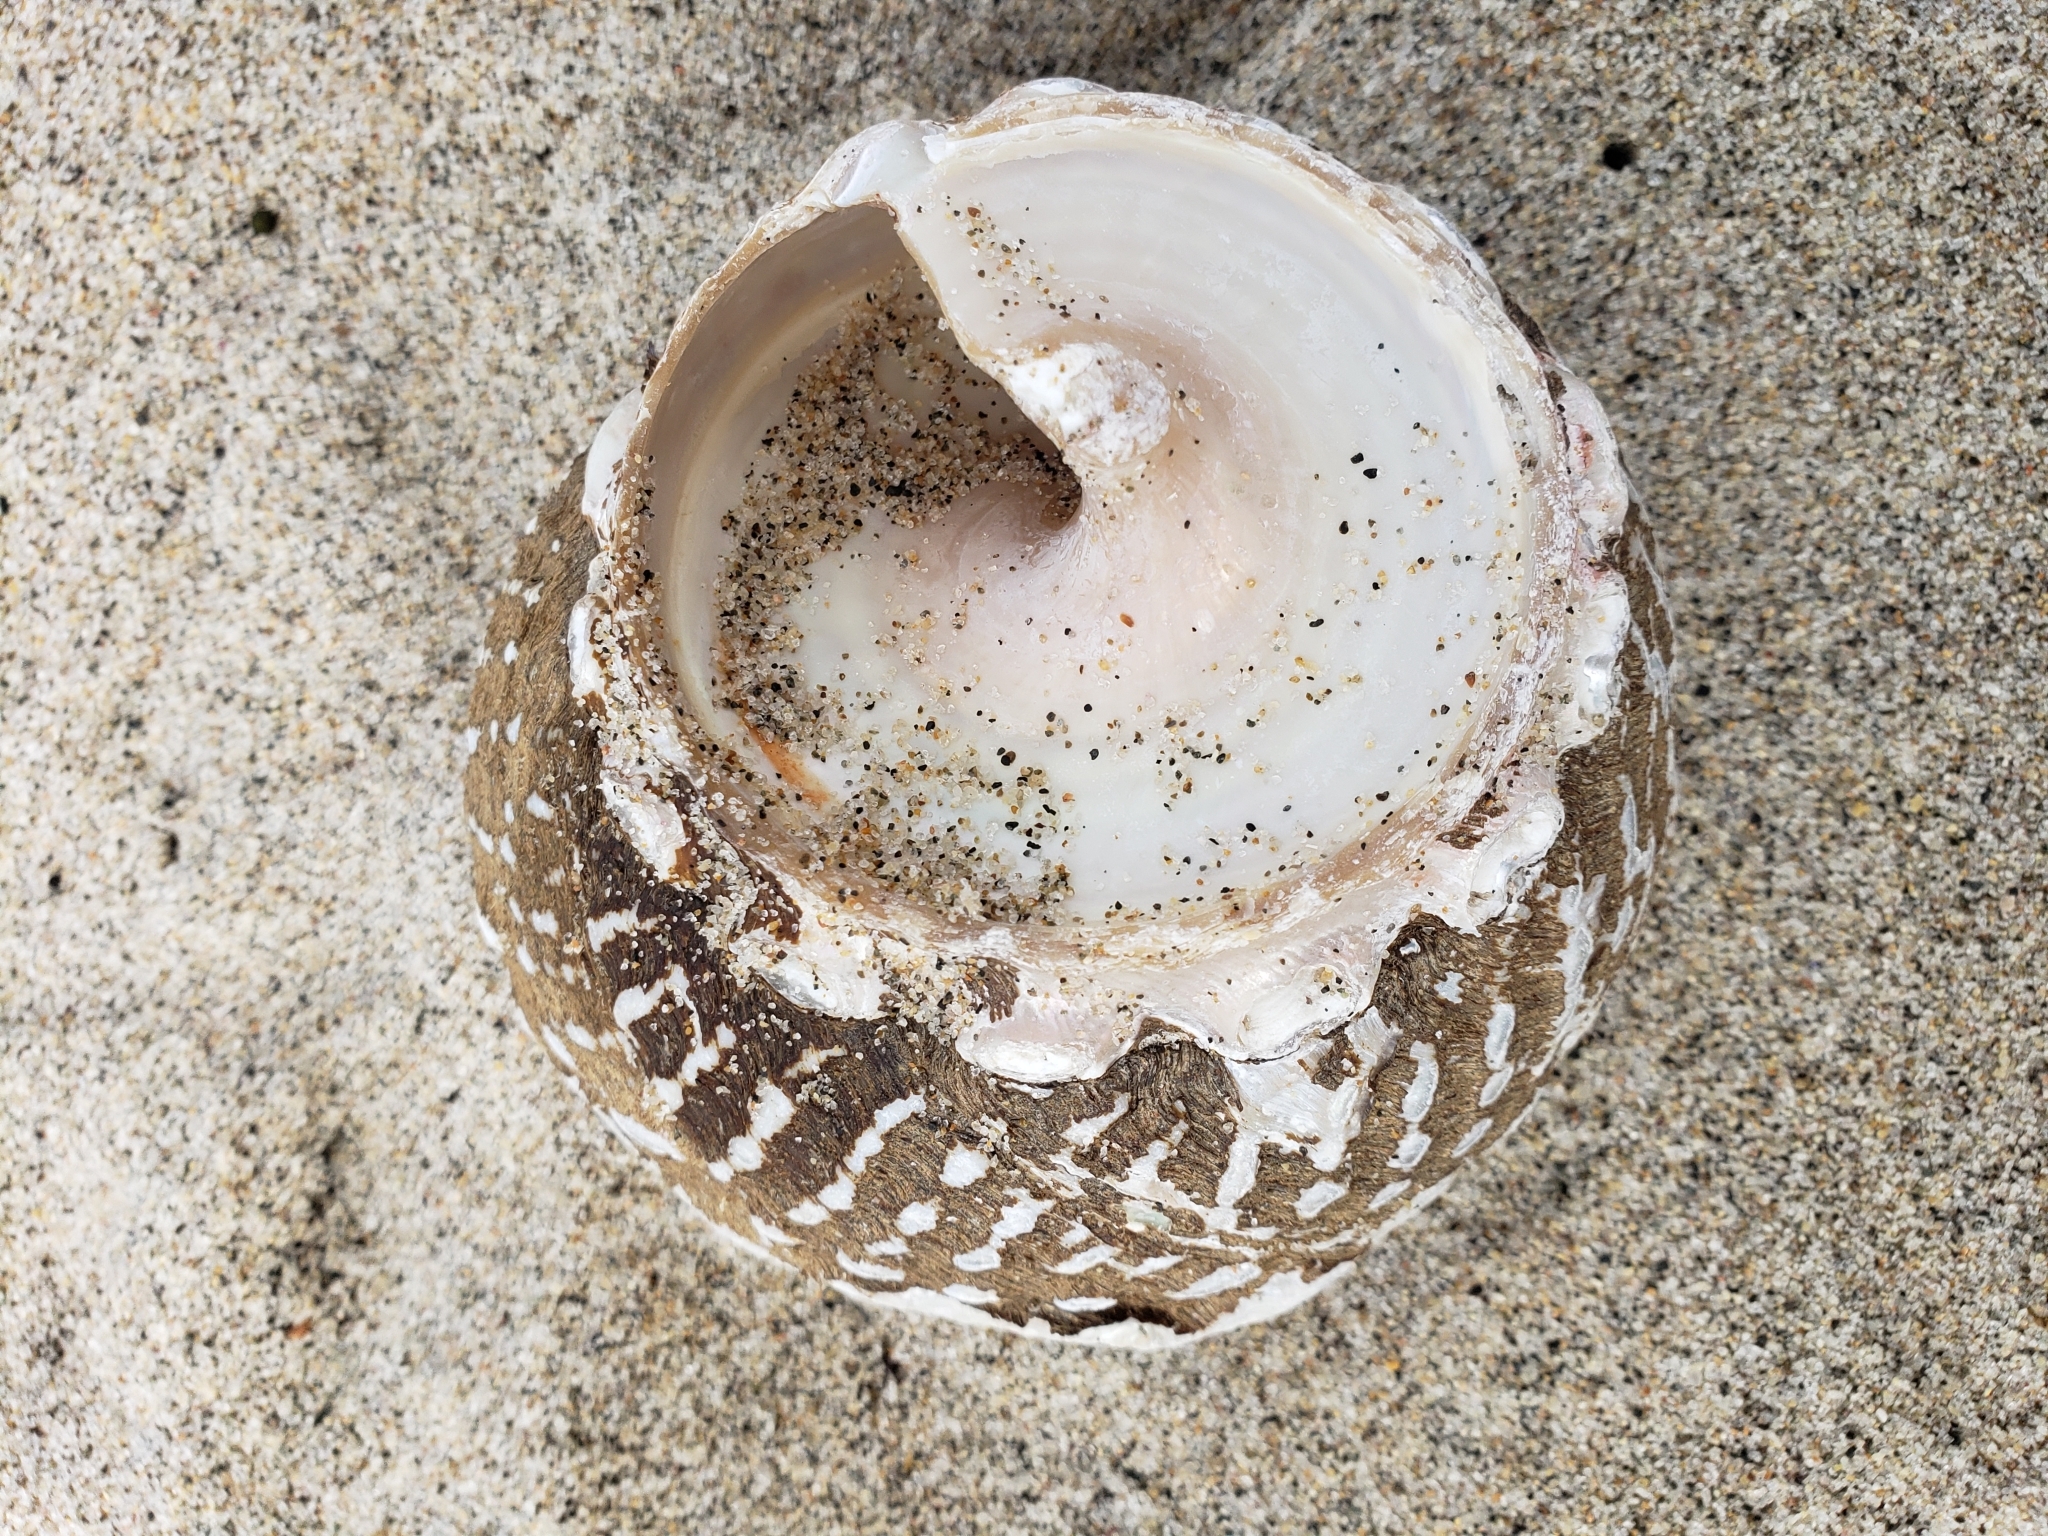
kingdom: Animalia
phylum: Mollusca
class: Gastropoda
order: Trochida
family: Turbinidae
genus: Megastraea
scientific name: Megastraea undosa
